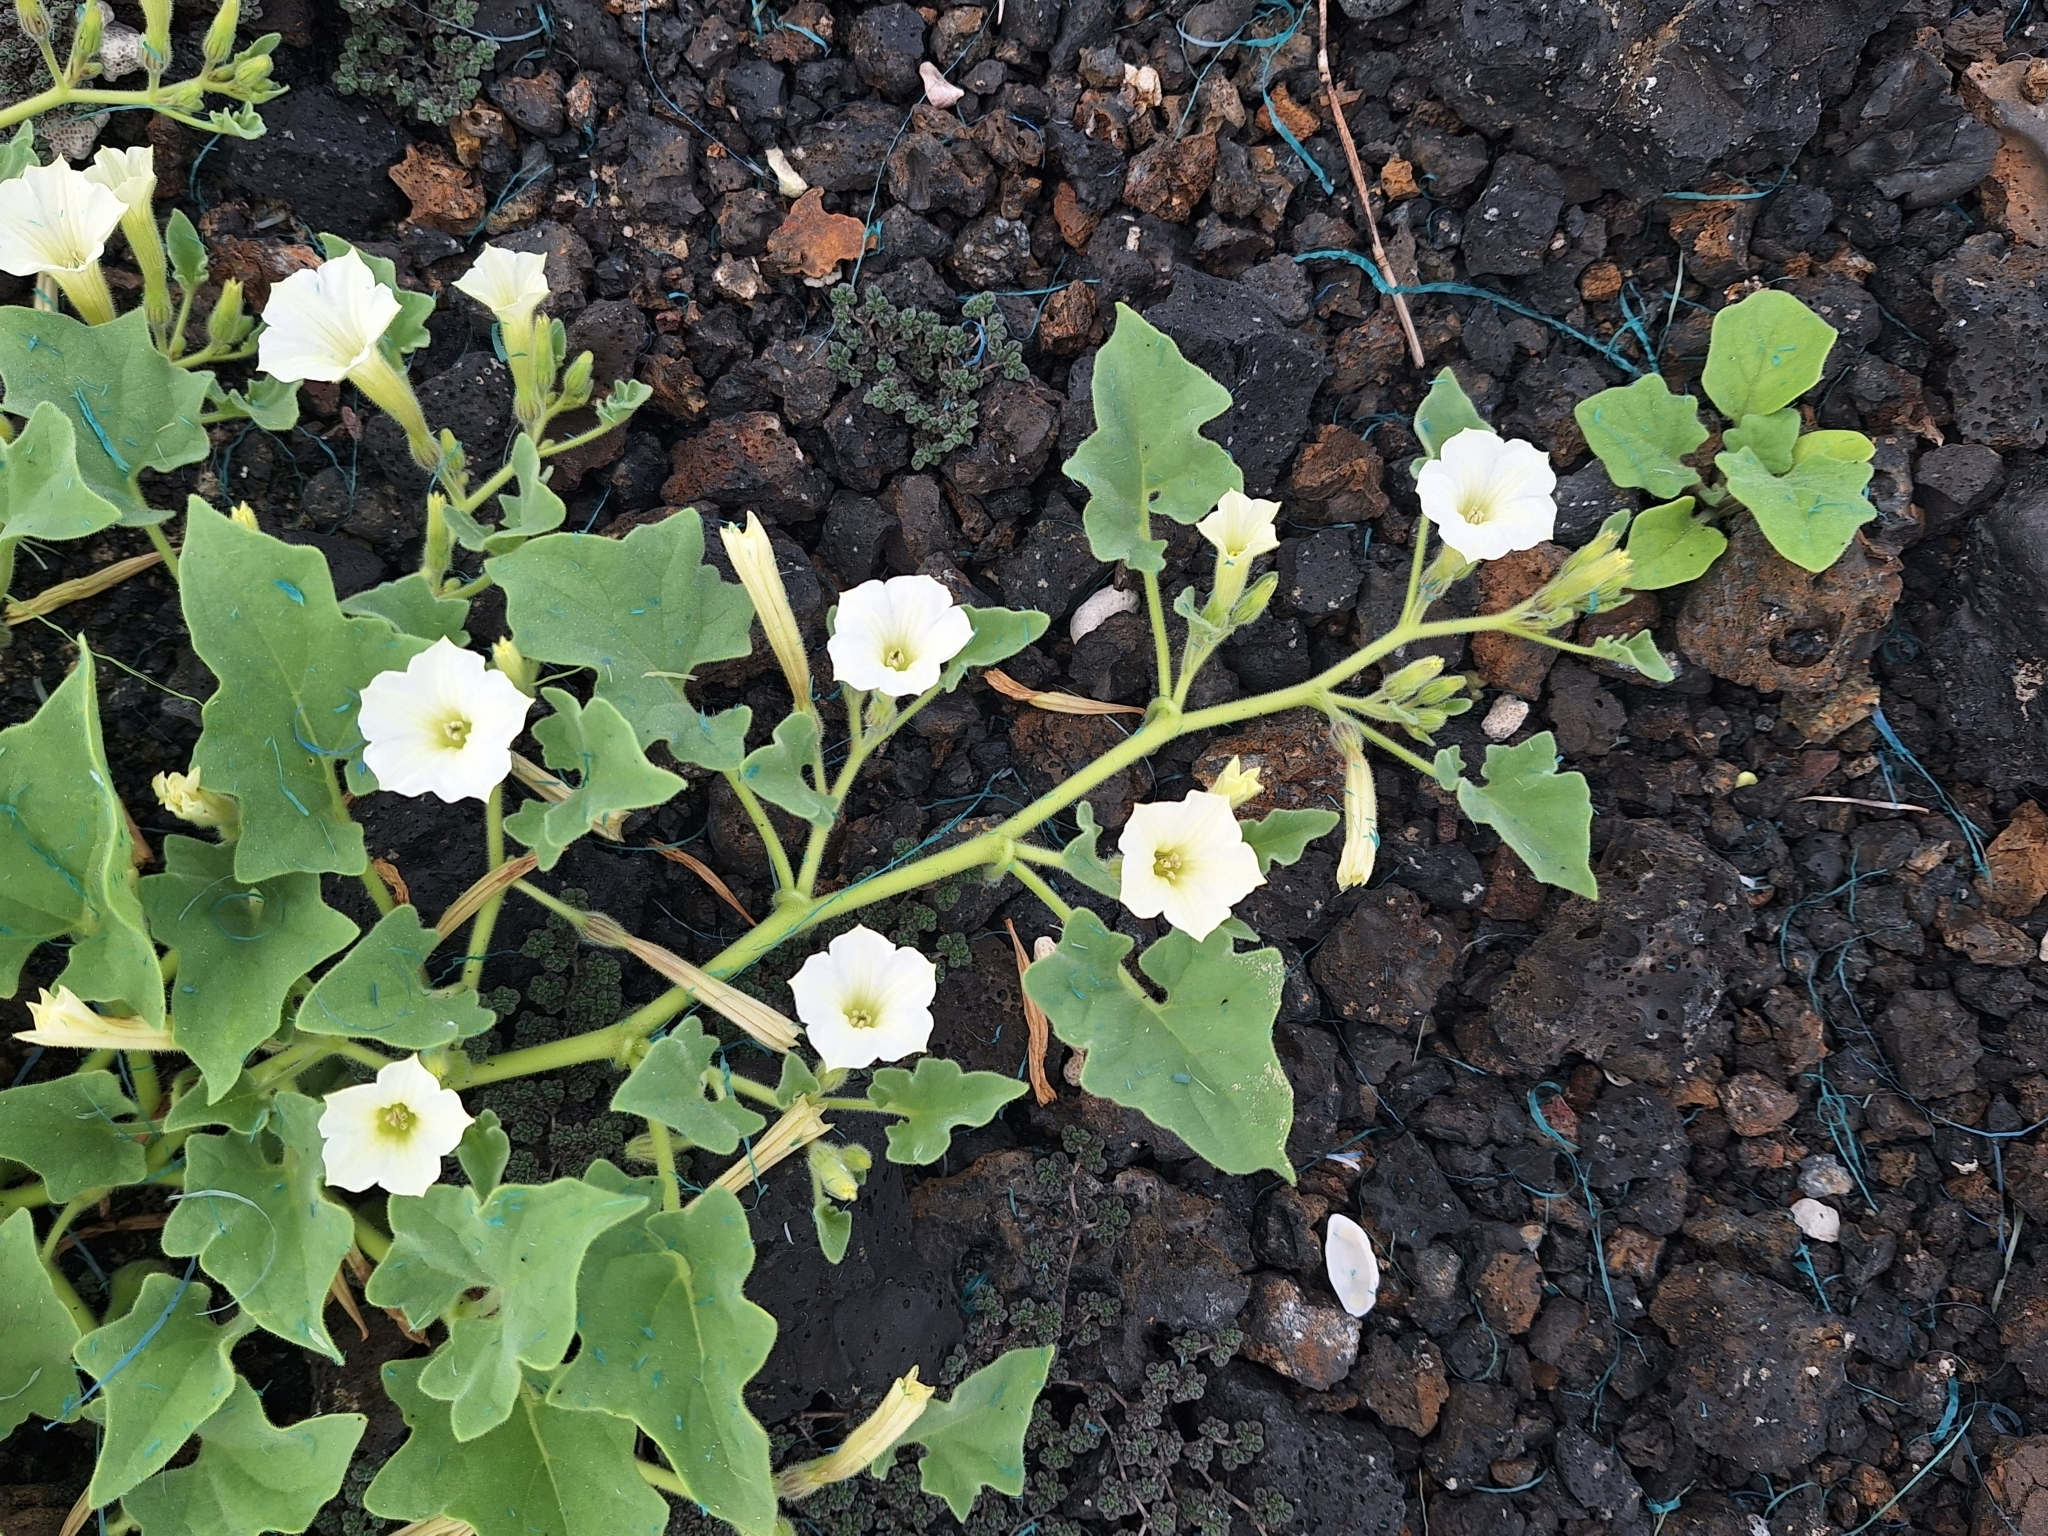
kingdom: Plantae
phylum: Tracheophyta
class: Magnoliopsida
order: Solanales
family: Solanaceae
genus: Exodeconus
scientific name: Exodeconus miersii
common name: Galapagos shore petunia
